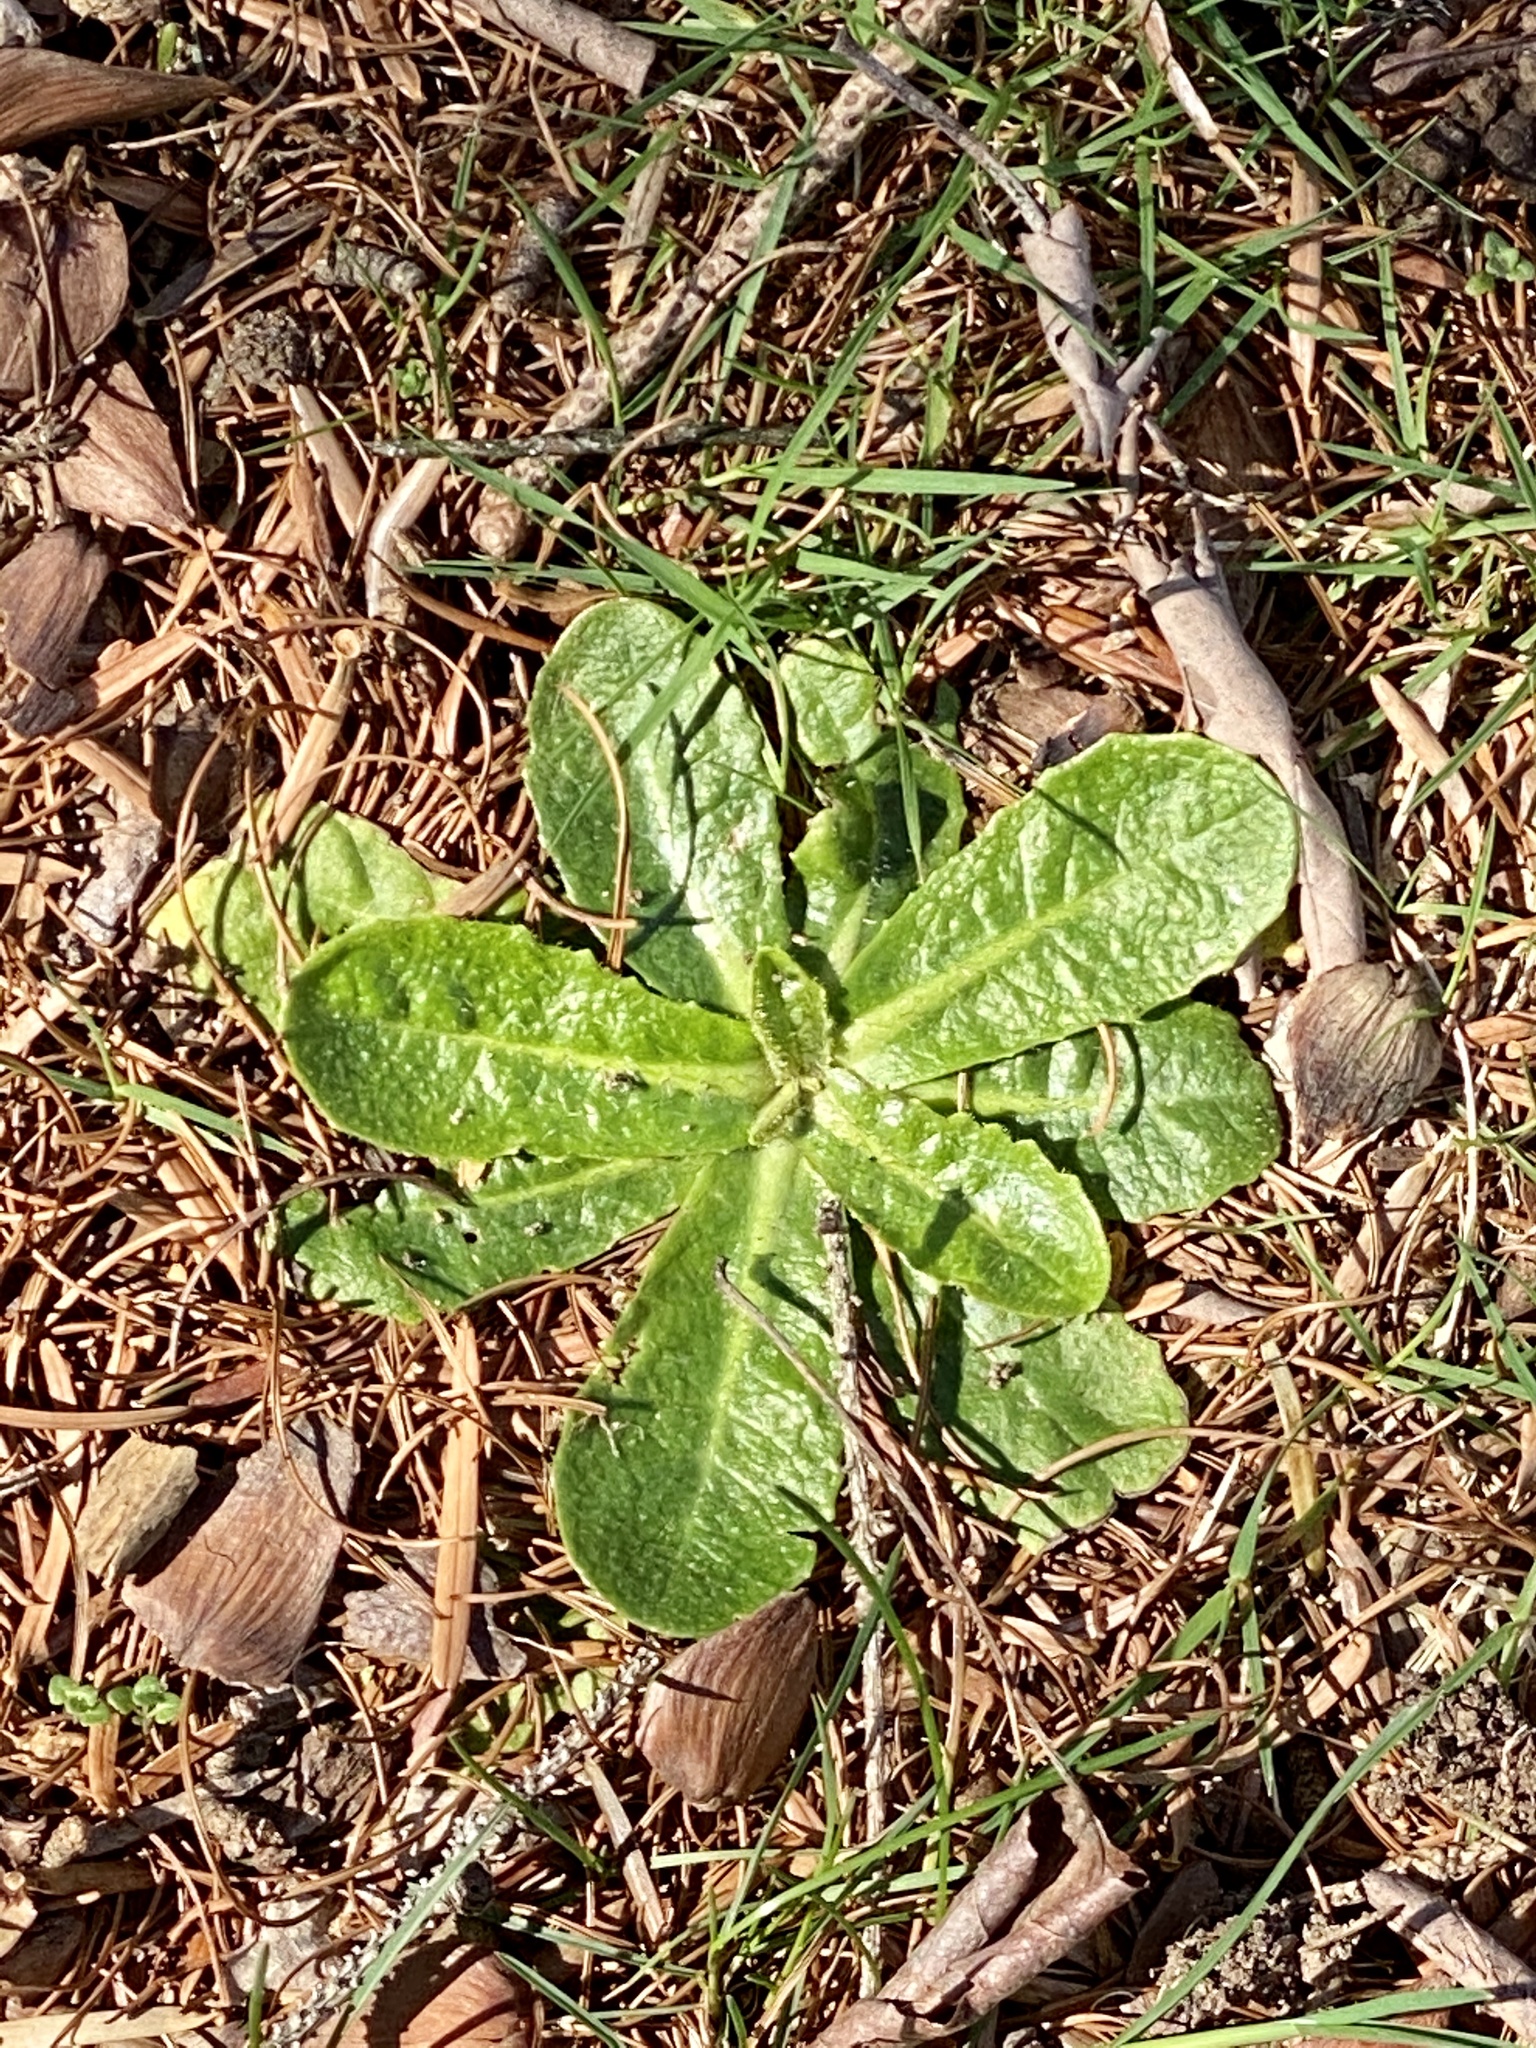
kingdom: Plantae
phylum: Tracheophyta
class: Magnoliopsida
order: Asterales
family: Asteraceae
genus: Hypochaeris
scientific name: Hypochaeris radicata
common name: Flatweed
